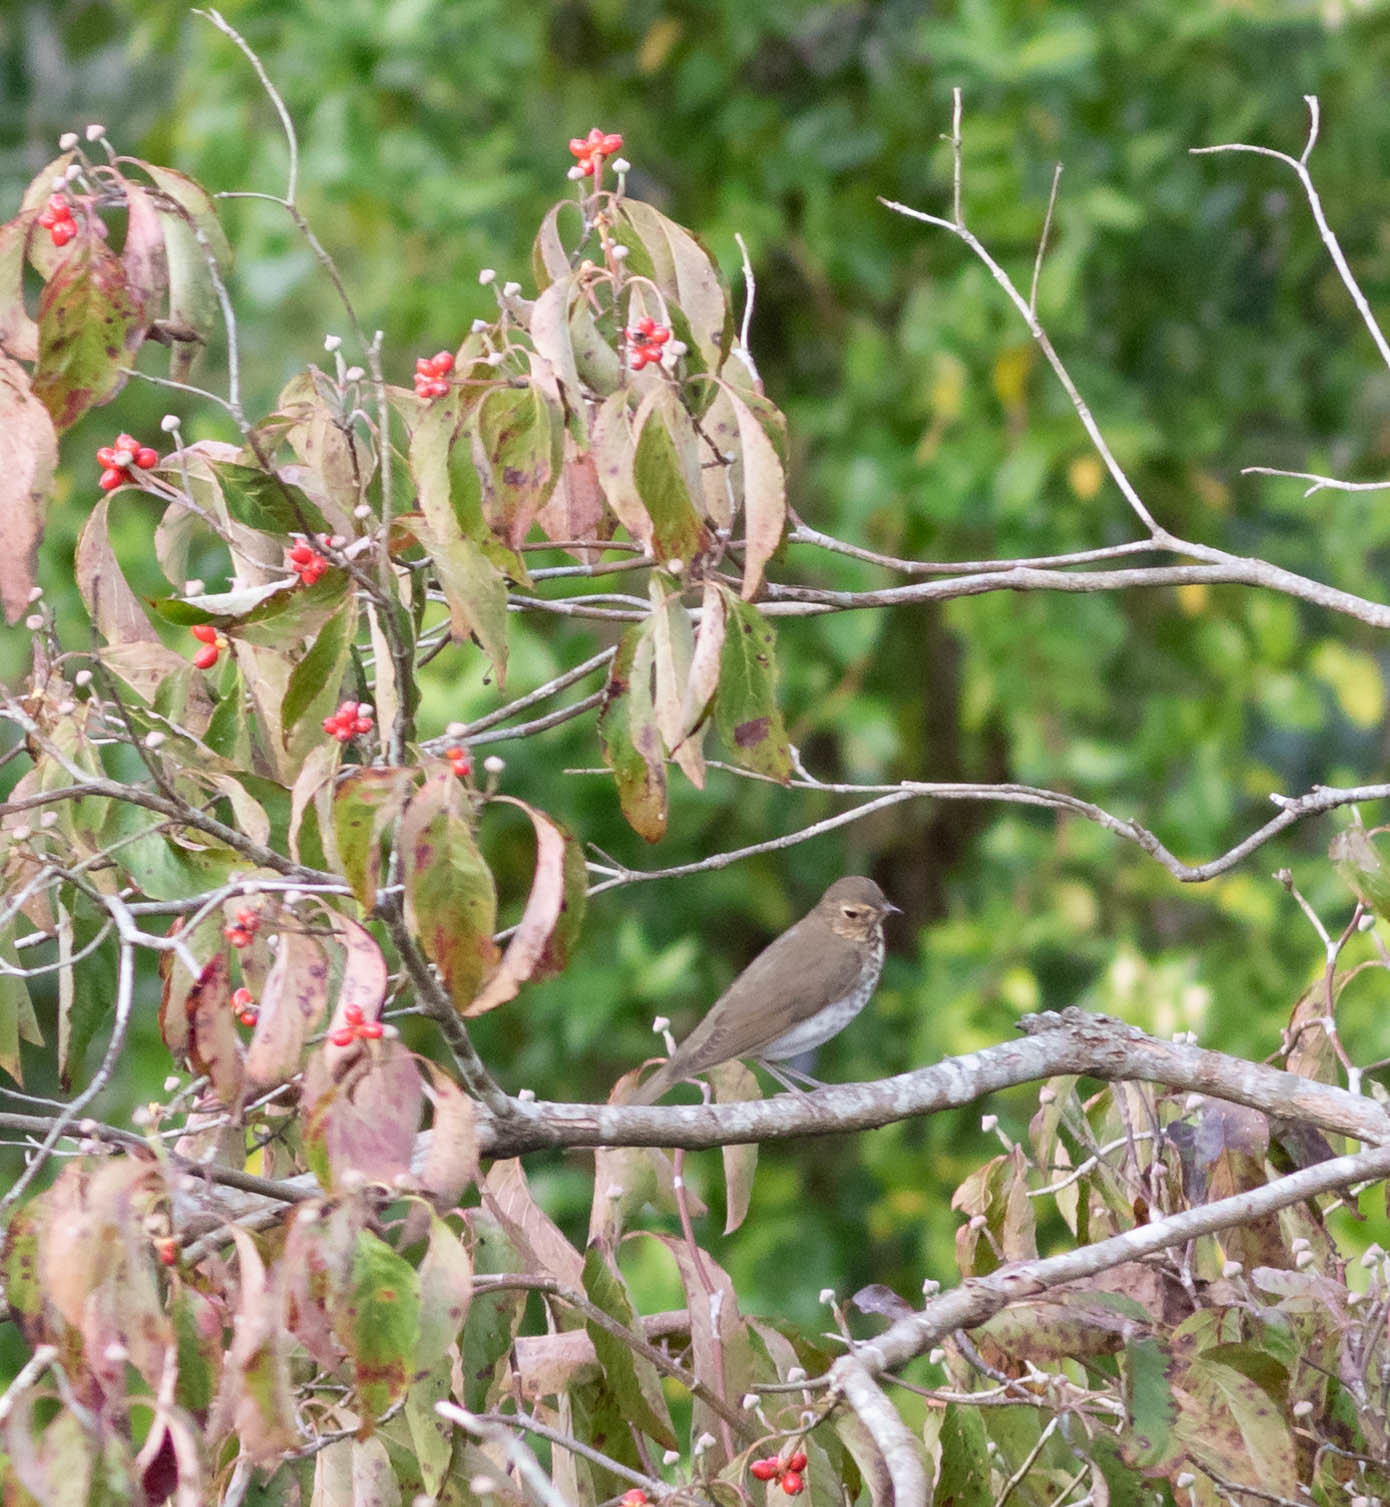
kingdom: Animalia
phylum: Chordata
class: Aves
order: Passeriformes
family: Turdidae
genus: Catharus
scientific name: Catharus ustulatus
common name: Swainson's thrush
